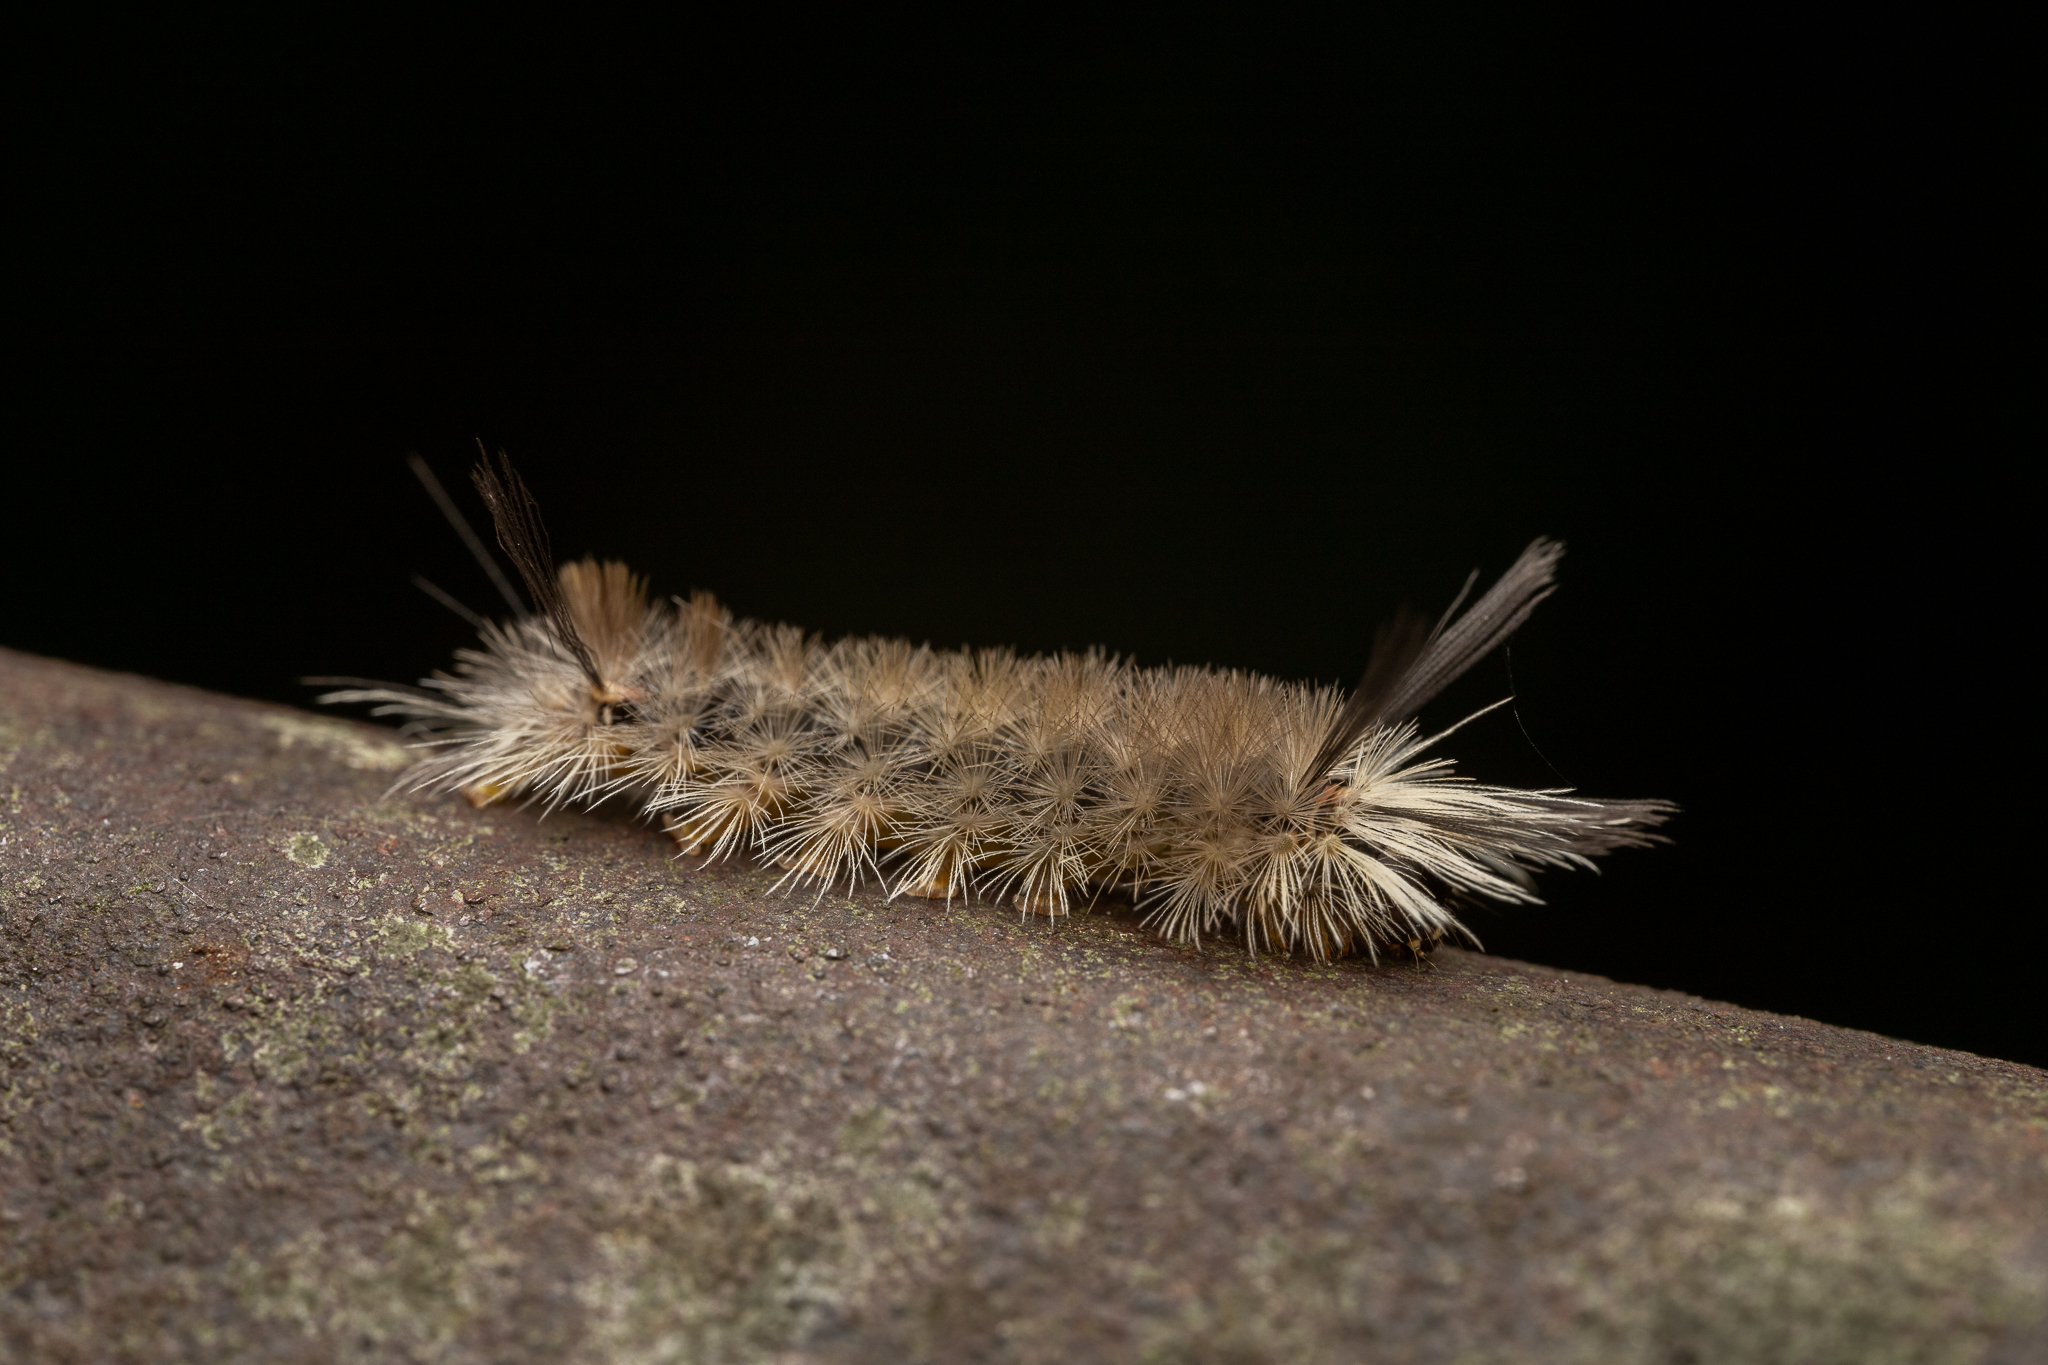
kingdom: Animalia
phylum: Arthropoda
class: Insecta
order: Lepidoptera
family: Erebidae
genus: Halysidota
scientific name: Halysidota tessellaris
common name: Banded tussock moth
